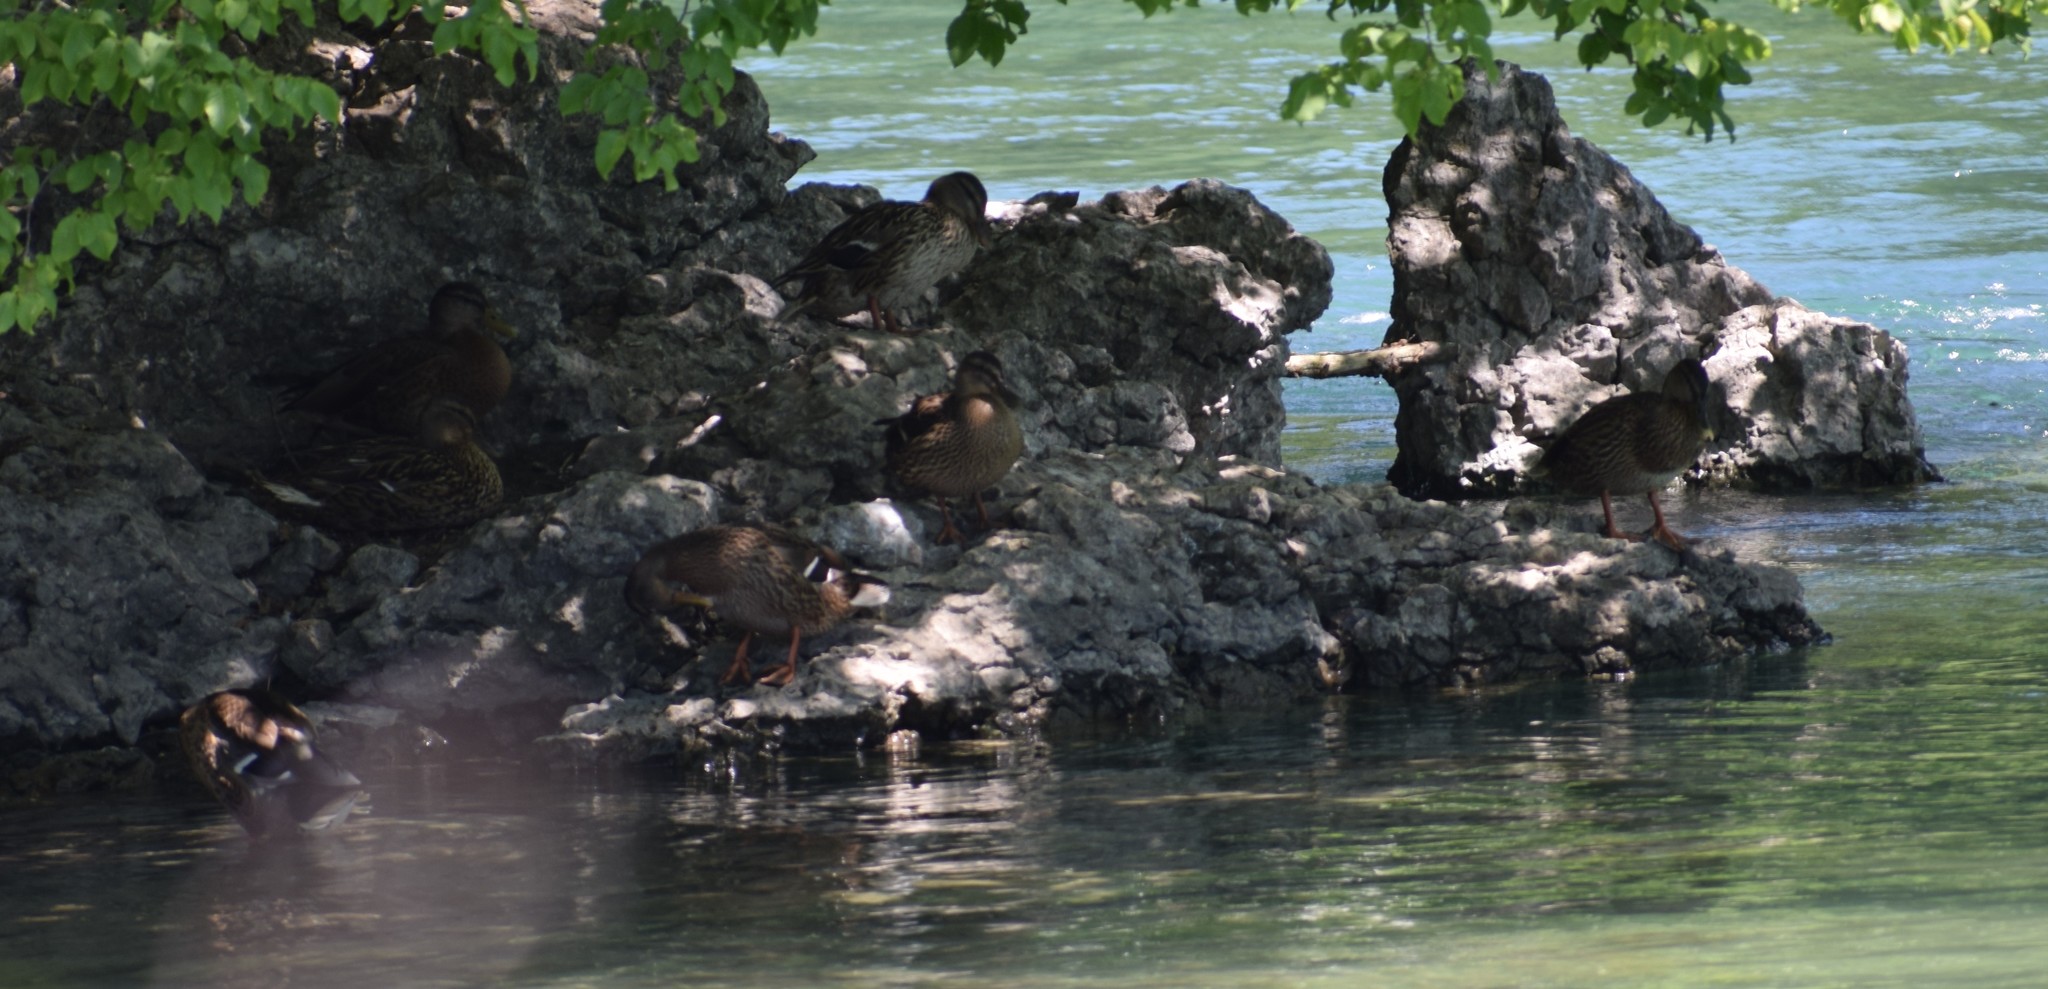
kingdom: Animalia
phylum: Chordata
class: Aves
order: Anseriformes
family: Anatidae
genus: Anas
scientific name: Anas platyrhynchos
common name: Mallard
